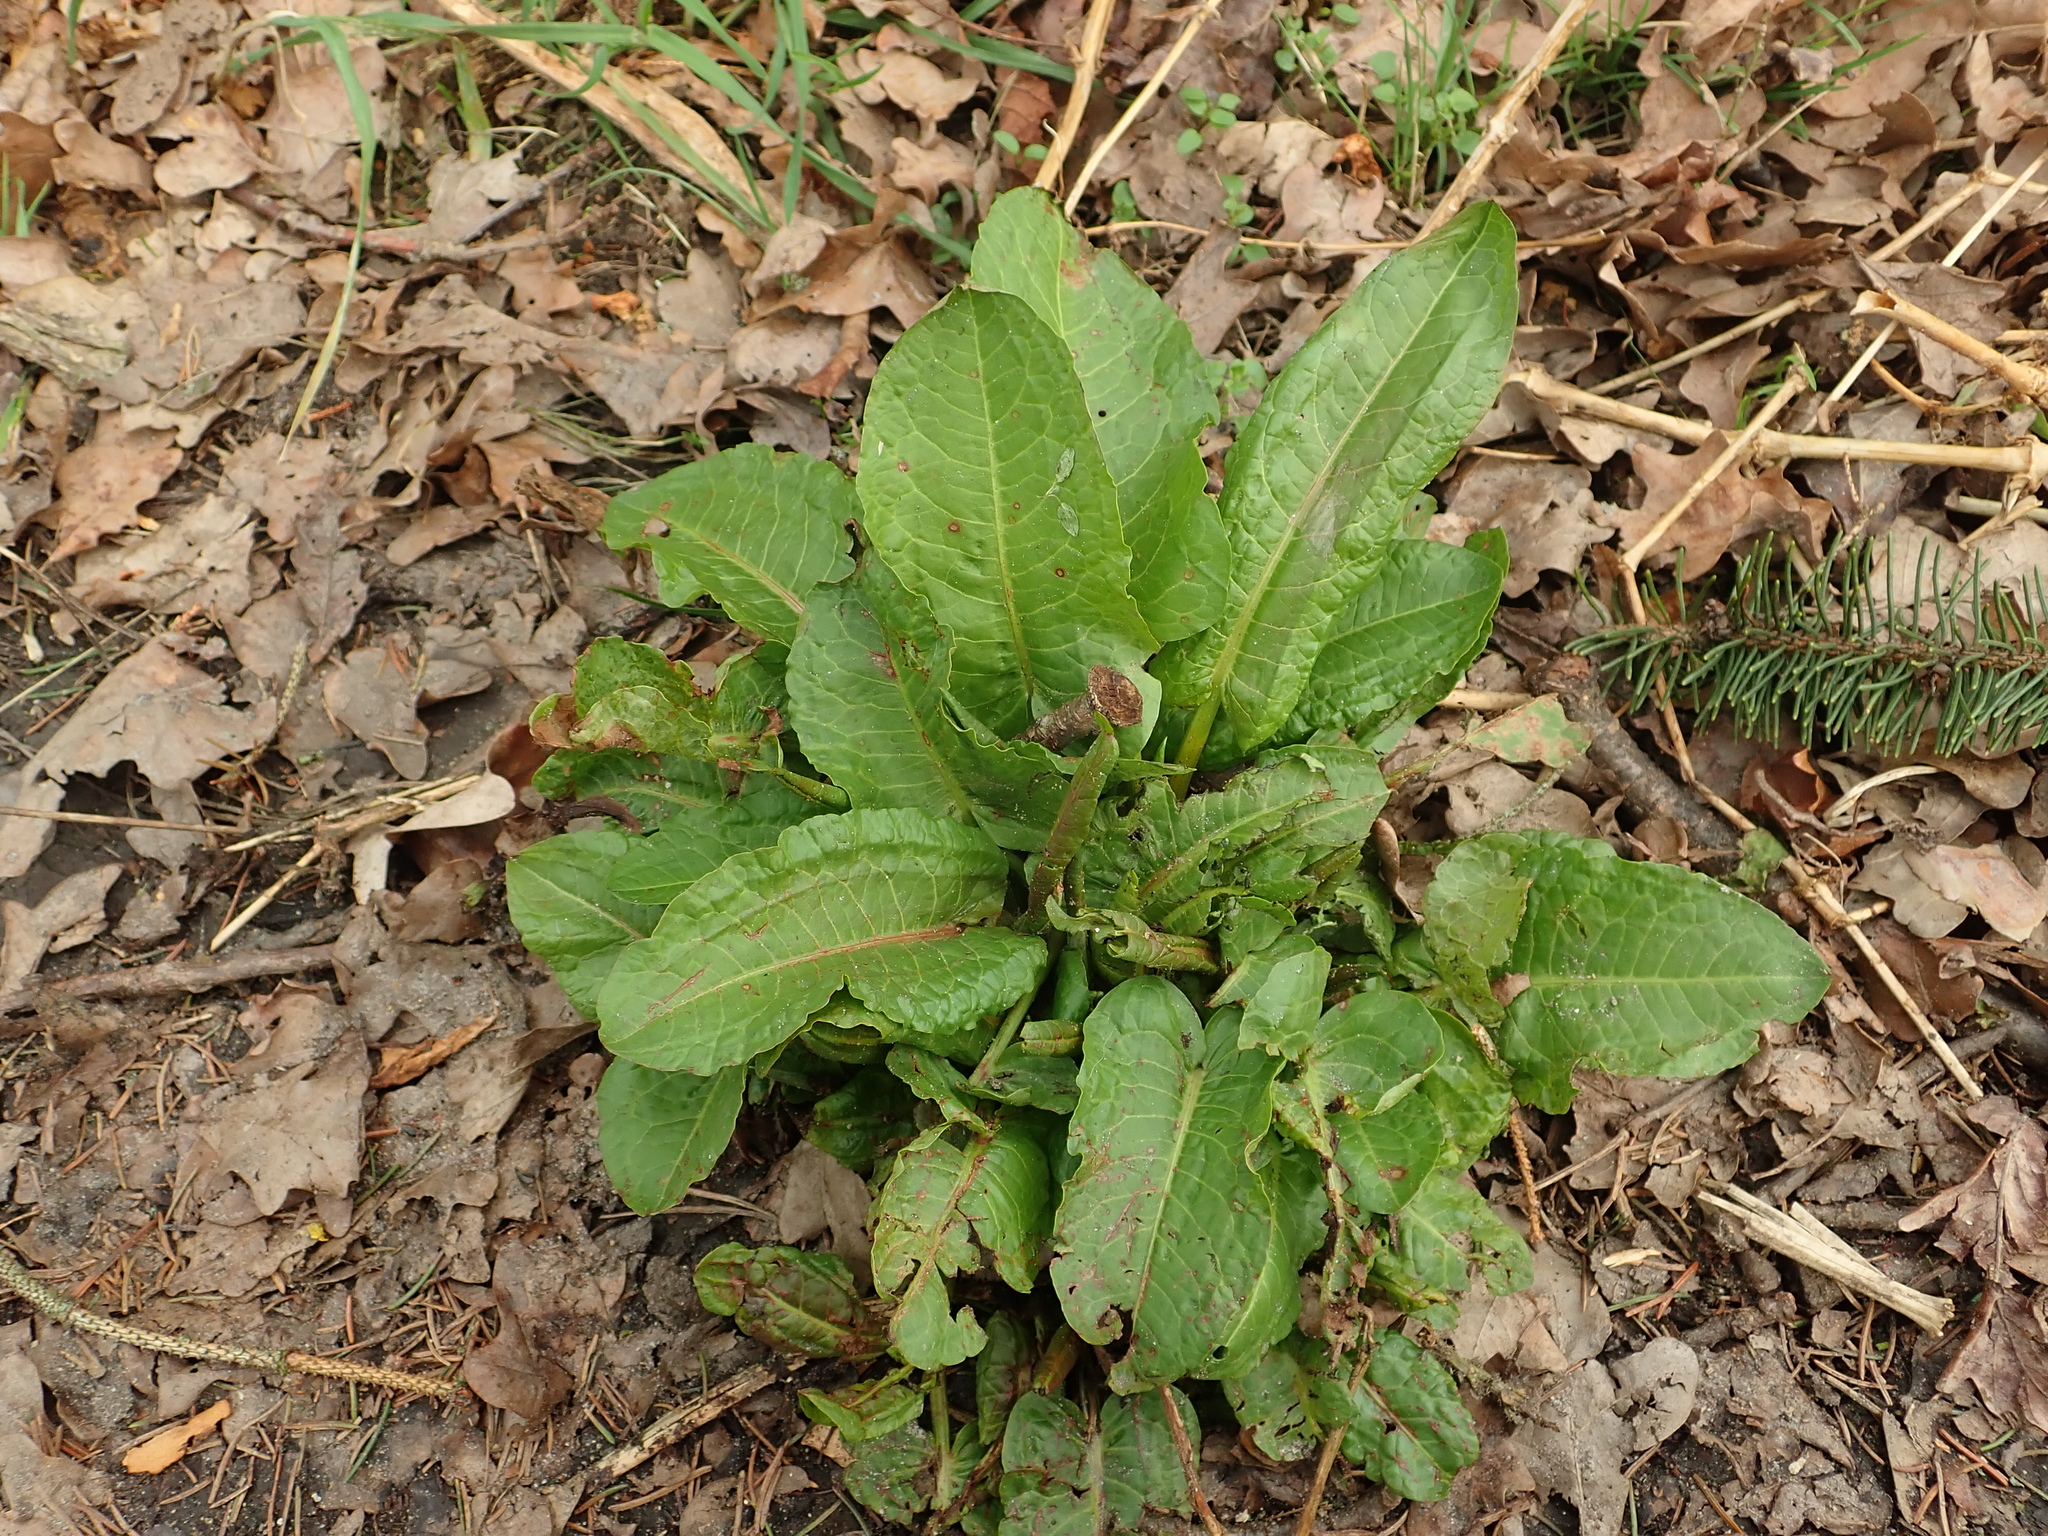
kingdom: Plantae
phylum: Tracheophyta
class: Magnoliopsida
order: Caryophyllales
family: Polygonaceae
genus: Rumex
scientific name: Rumex obtusifolius
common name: Bitter dock
